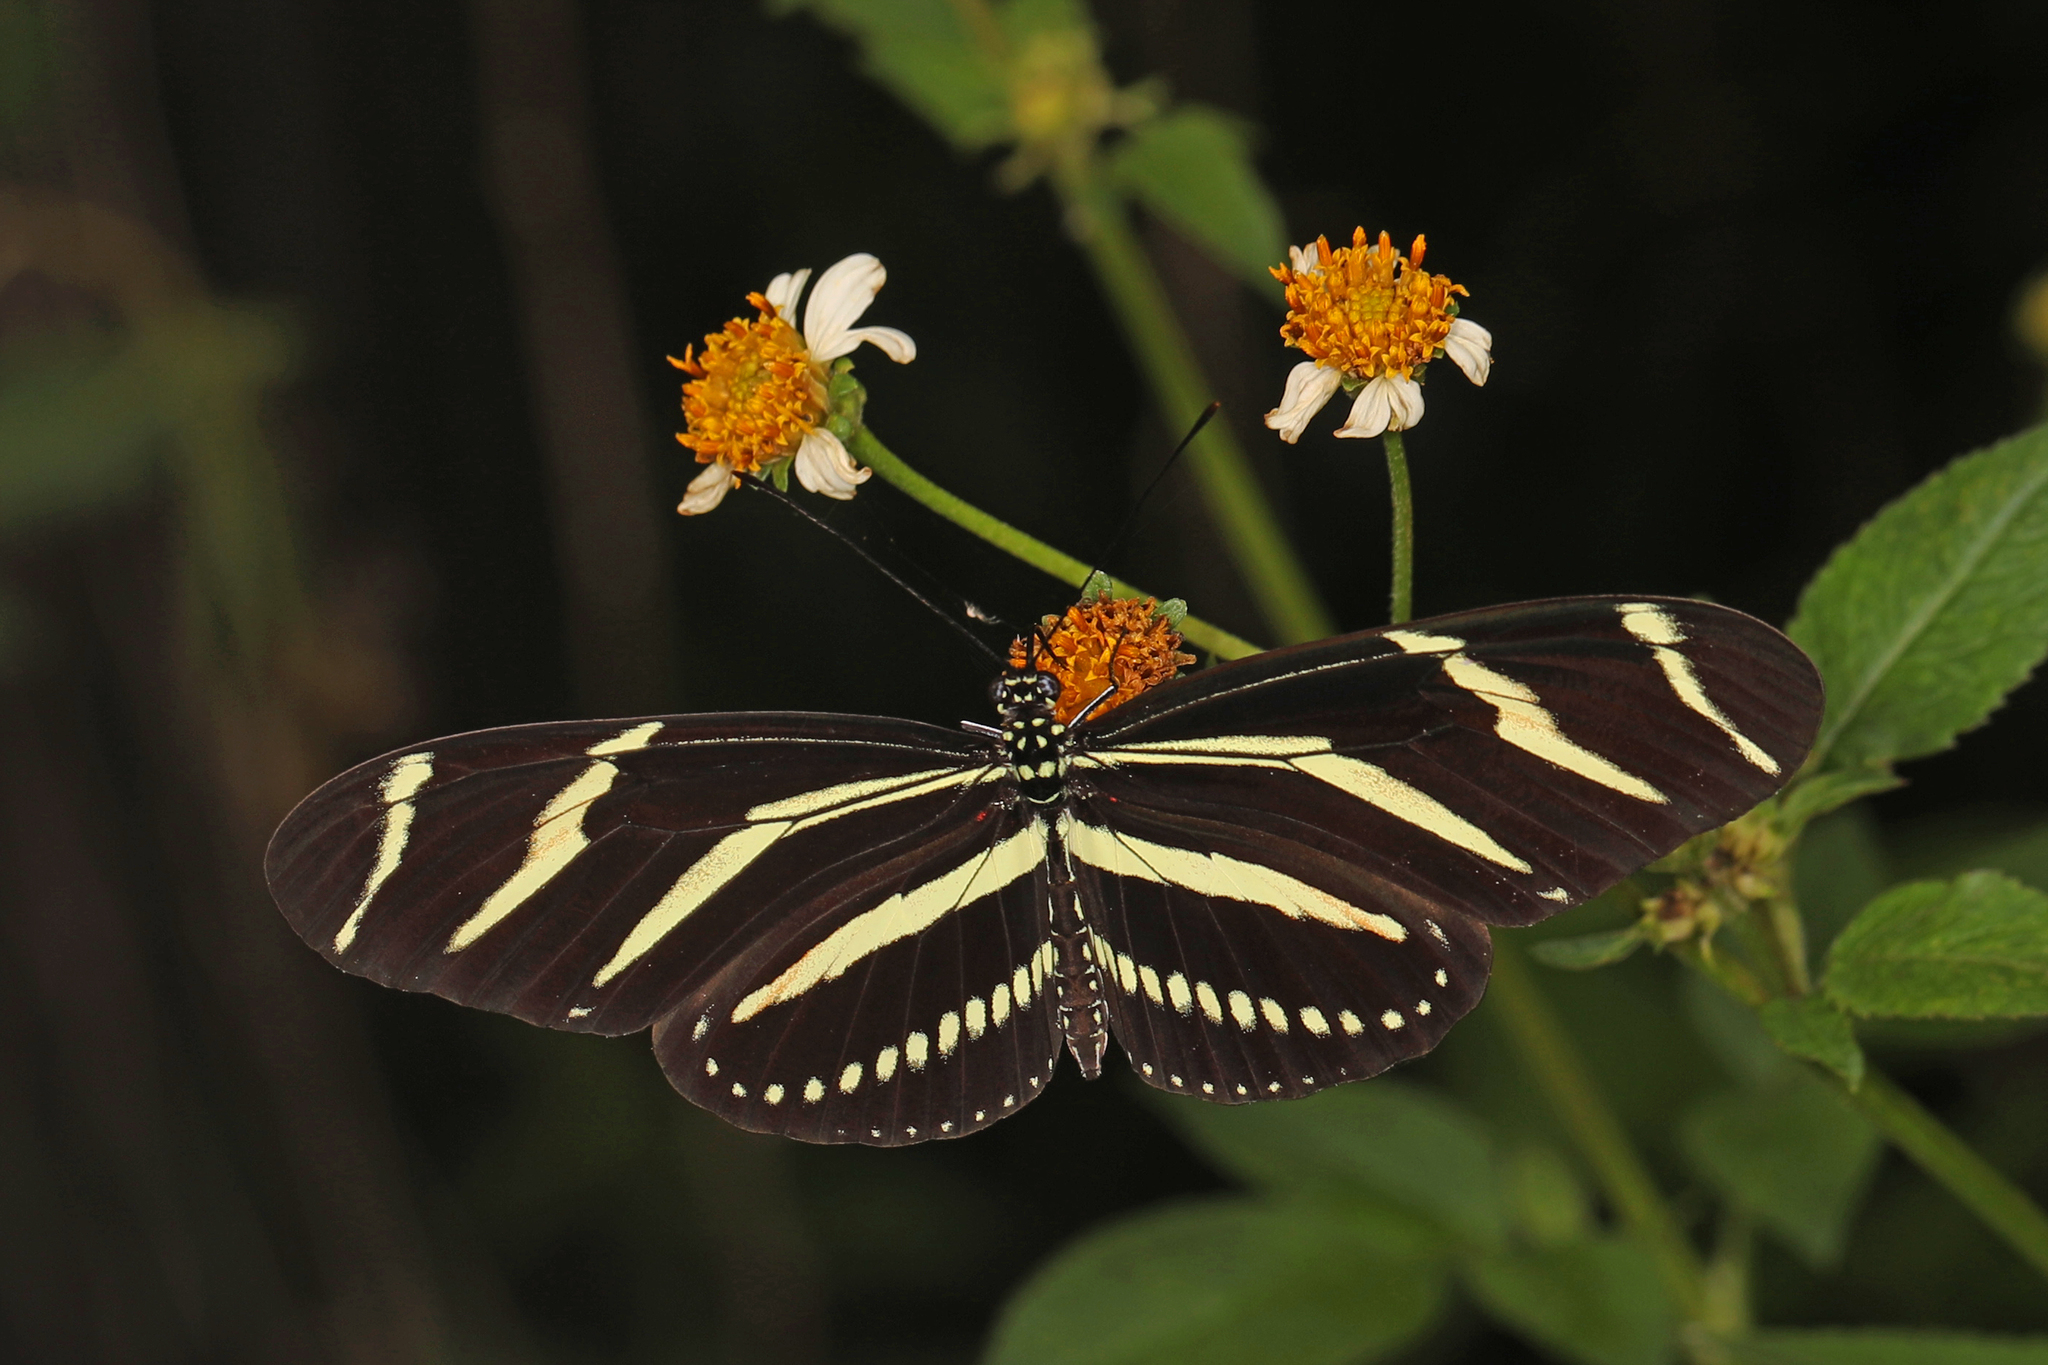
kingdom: Animalia
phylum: Arthropoda
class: Insecta
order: Lepidoptera
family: Nymphalidae
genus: Heliconius
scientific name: Heliconius charithonia
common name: Zebra long wing
